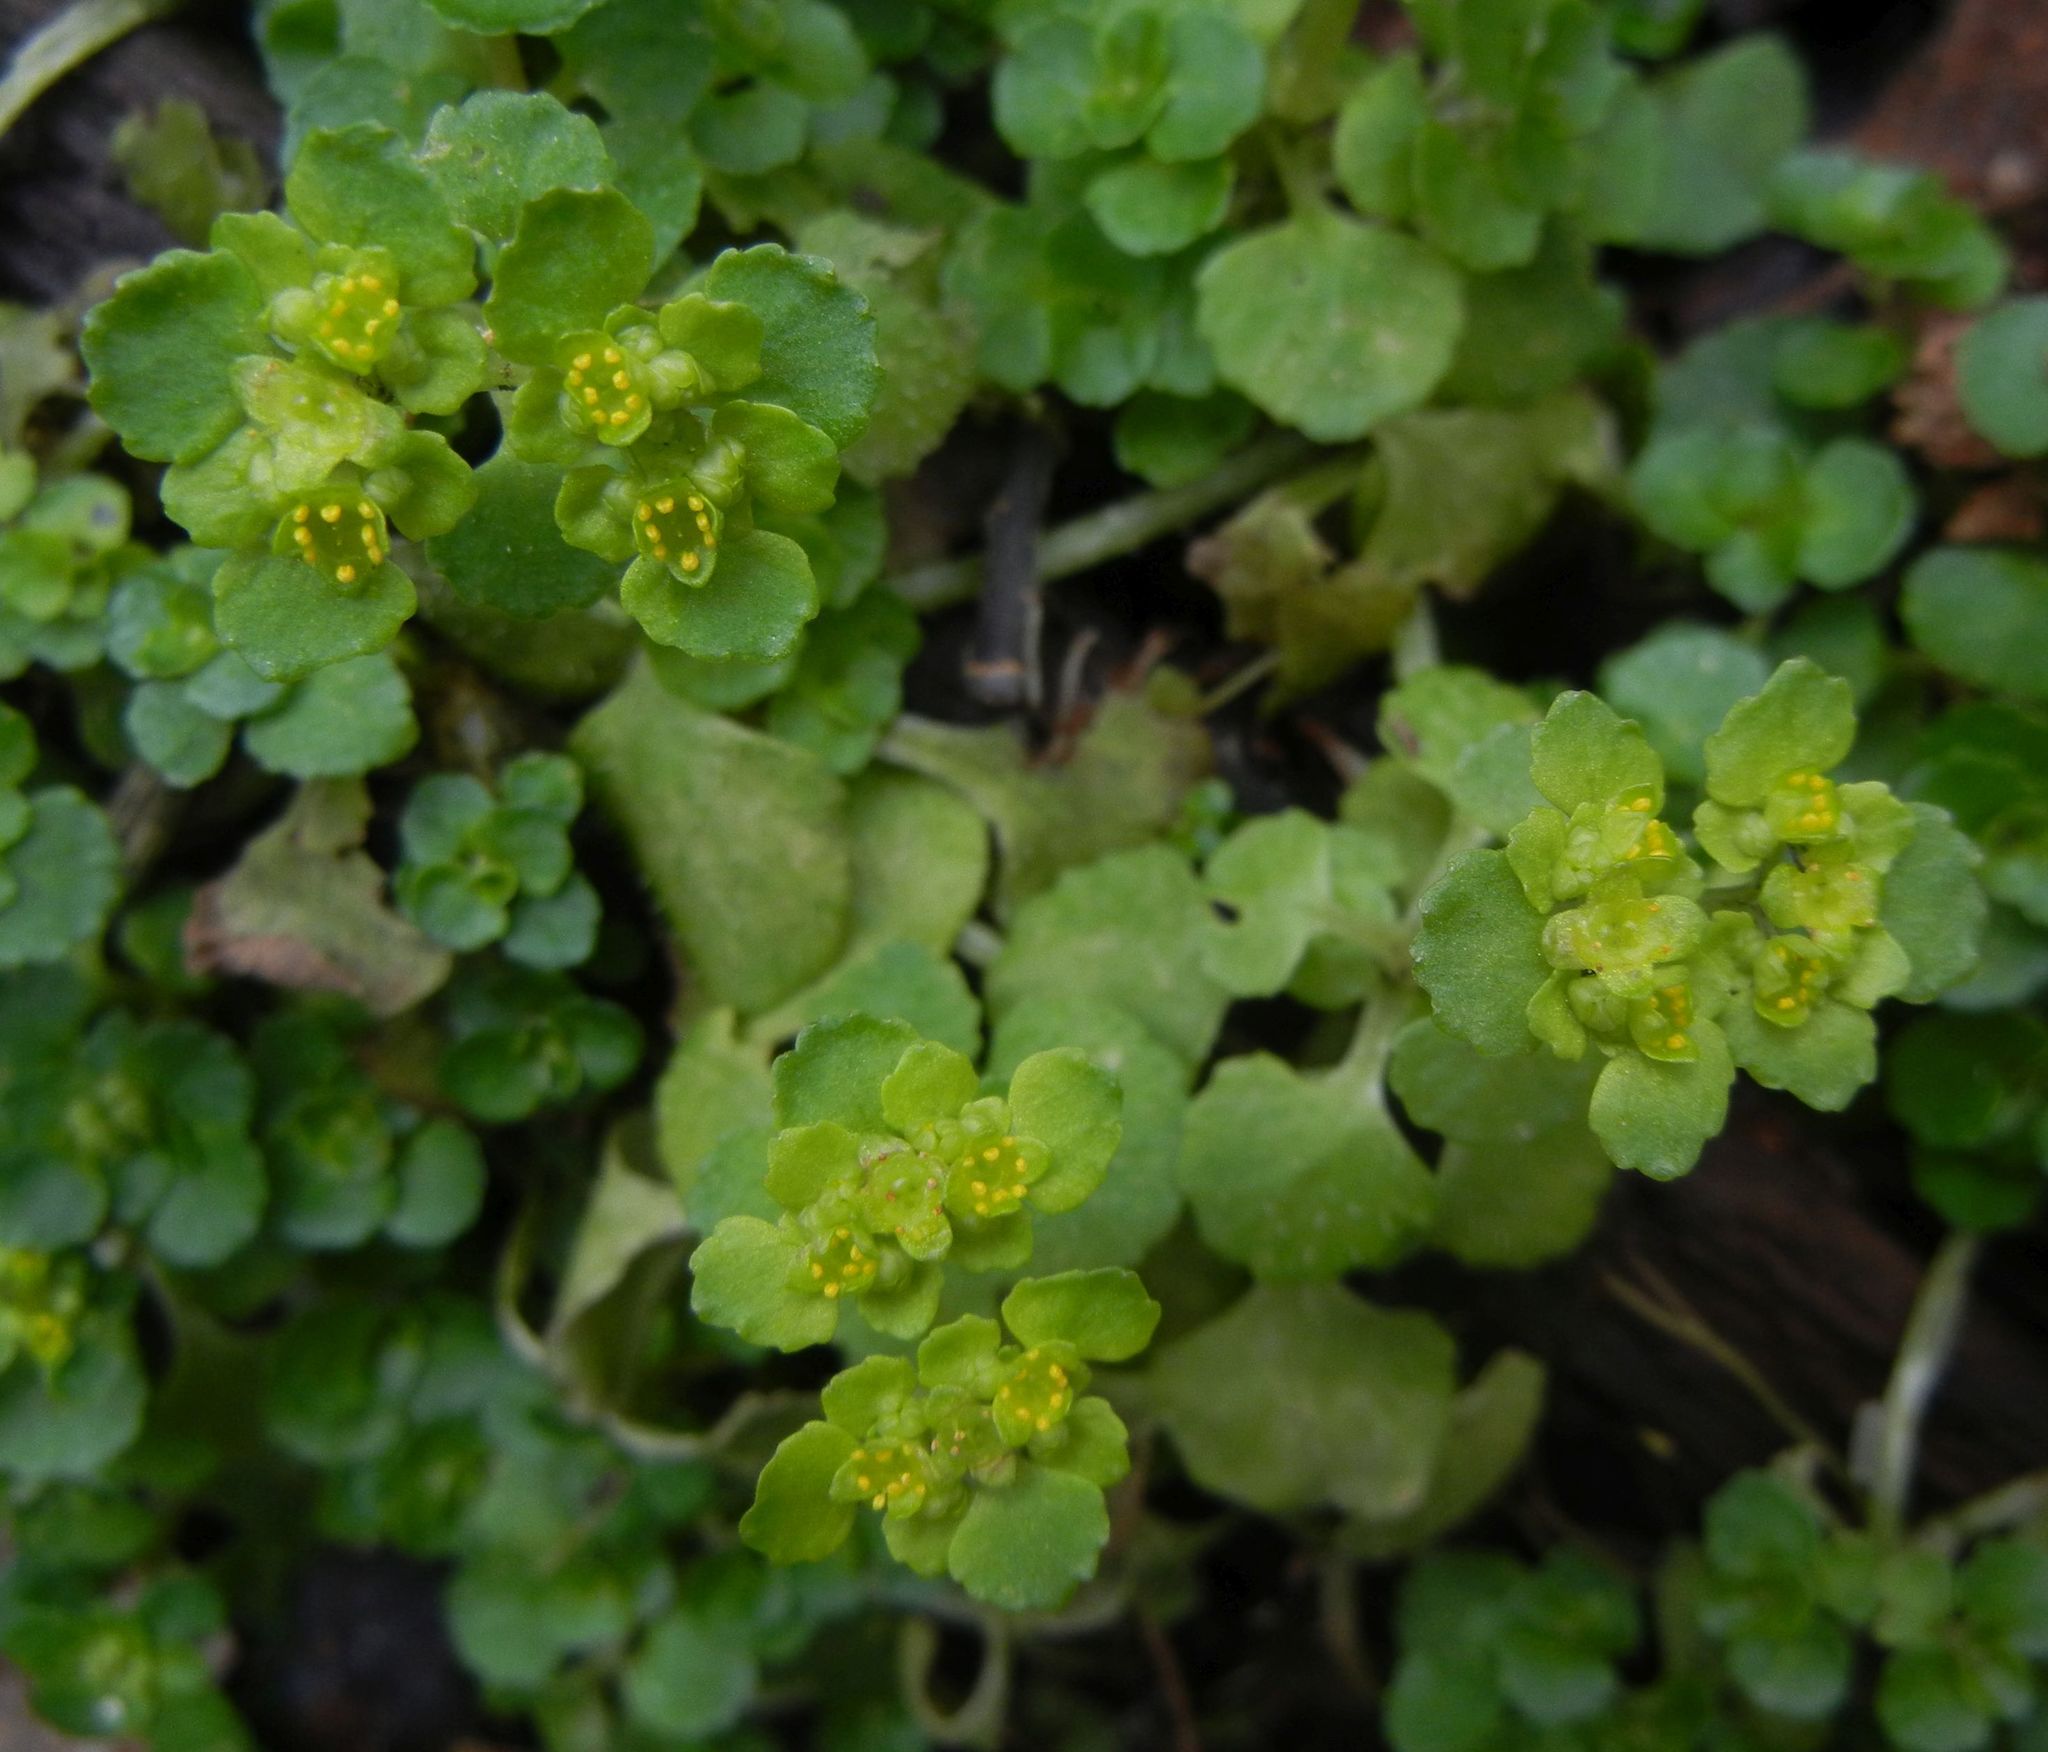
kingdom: Plantae
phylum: Tracheophyta
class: Magnoliopsida
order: Saxifragales
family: Saxifragaceae
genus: Chrysosplenium
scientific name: Chrysosplenium oppositifolium
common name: Opposite-leaved golden-saxifrage
